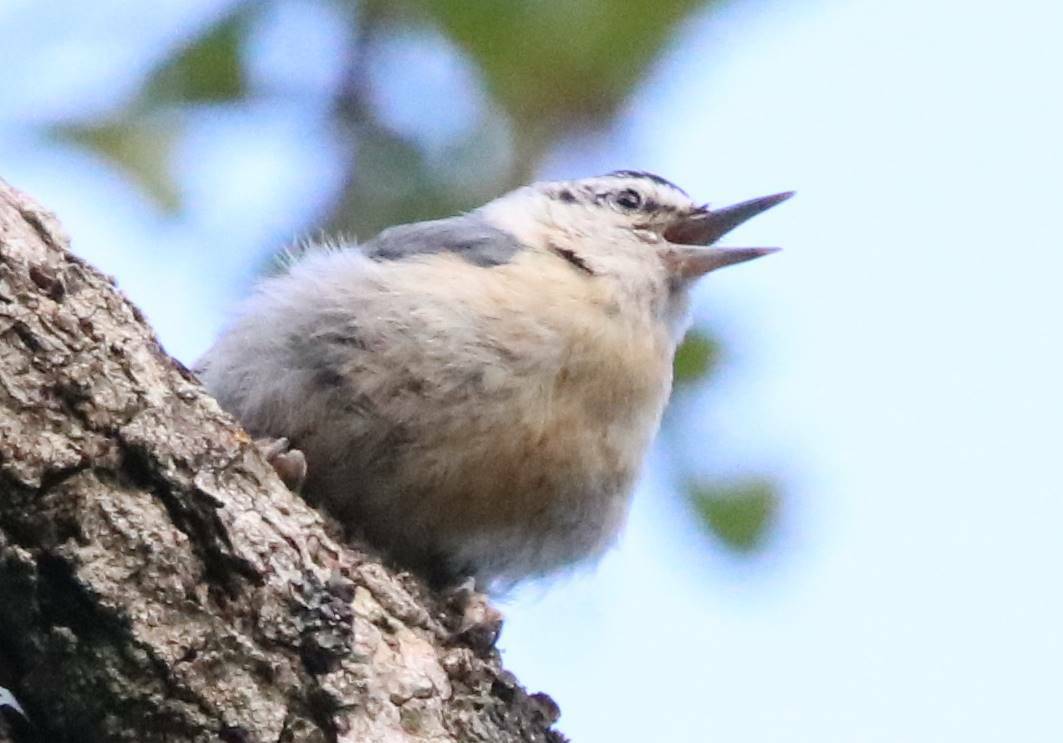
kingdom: Animalia
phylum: Chordata
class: Aves
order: Passeriformes
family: Sittidae
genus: Sitta
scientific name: Sitta ledanti
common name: Algerian nuthatch
